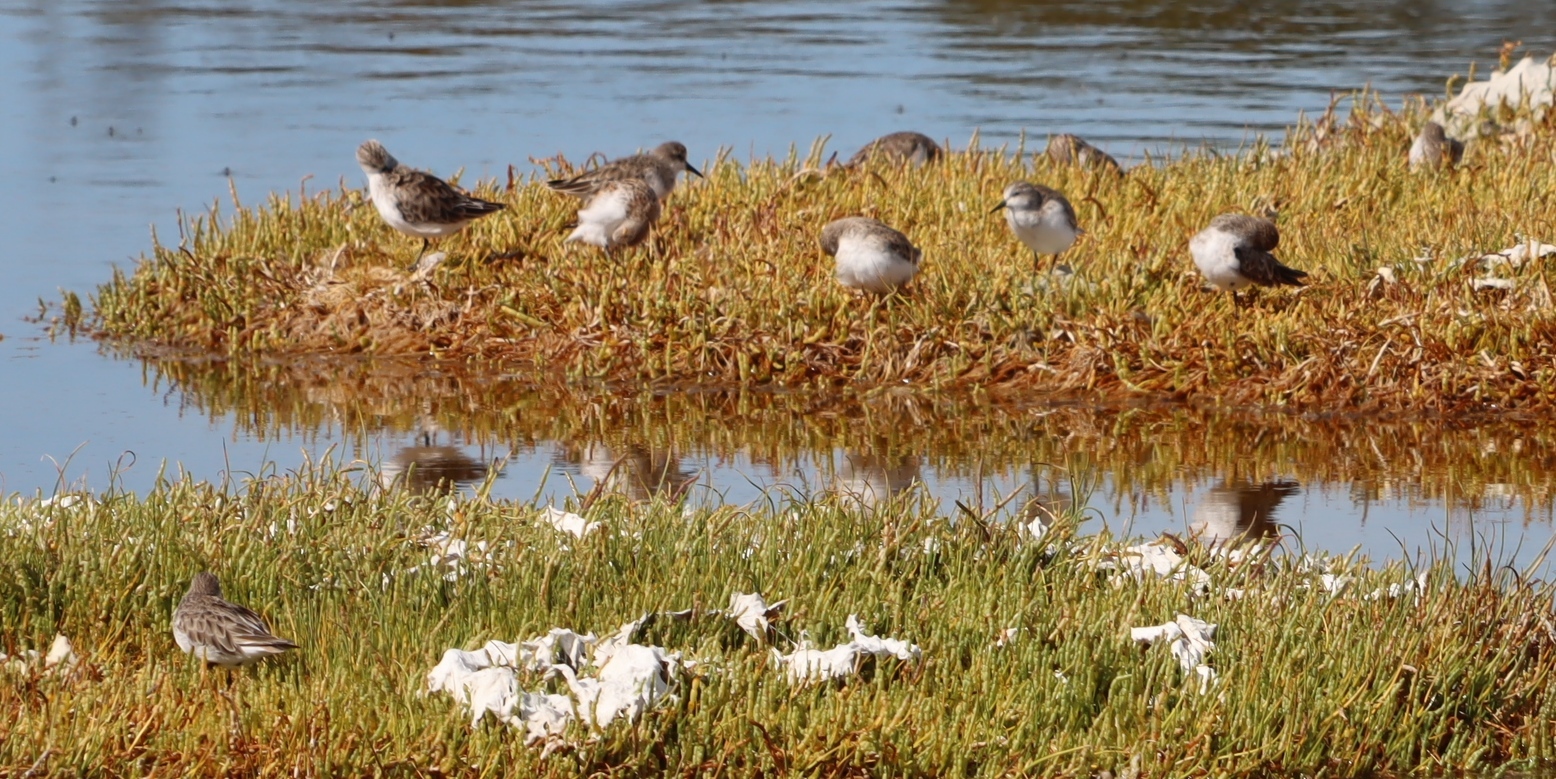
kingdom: Animalia
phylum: Chordata
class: Aves
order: Charadriiformes
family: Scolopacidae
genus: Calidris
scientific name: Calidris minuta
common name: Little stint
